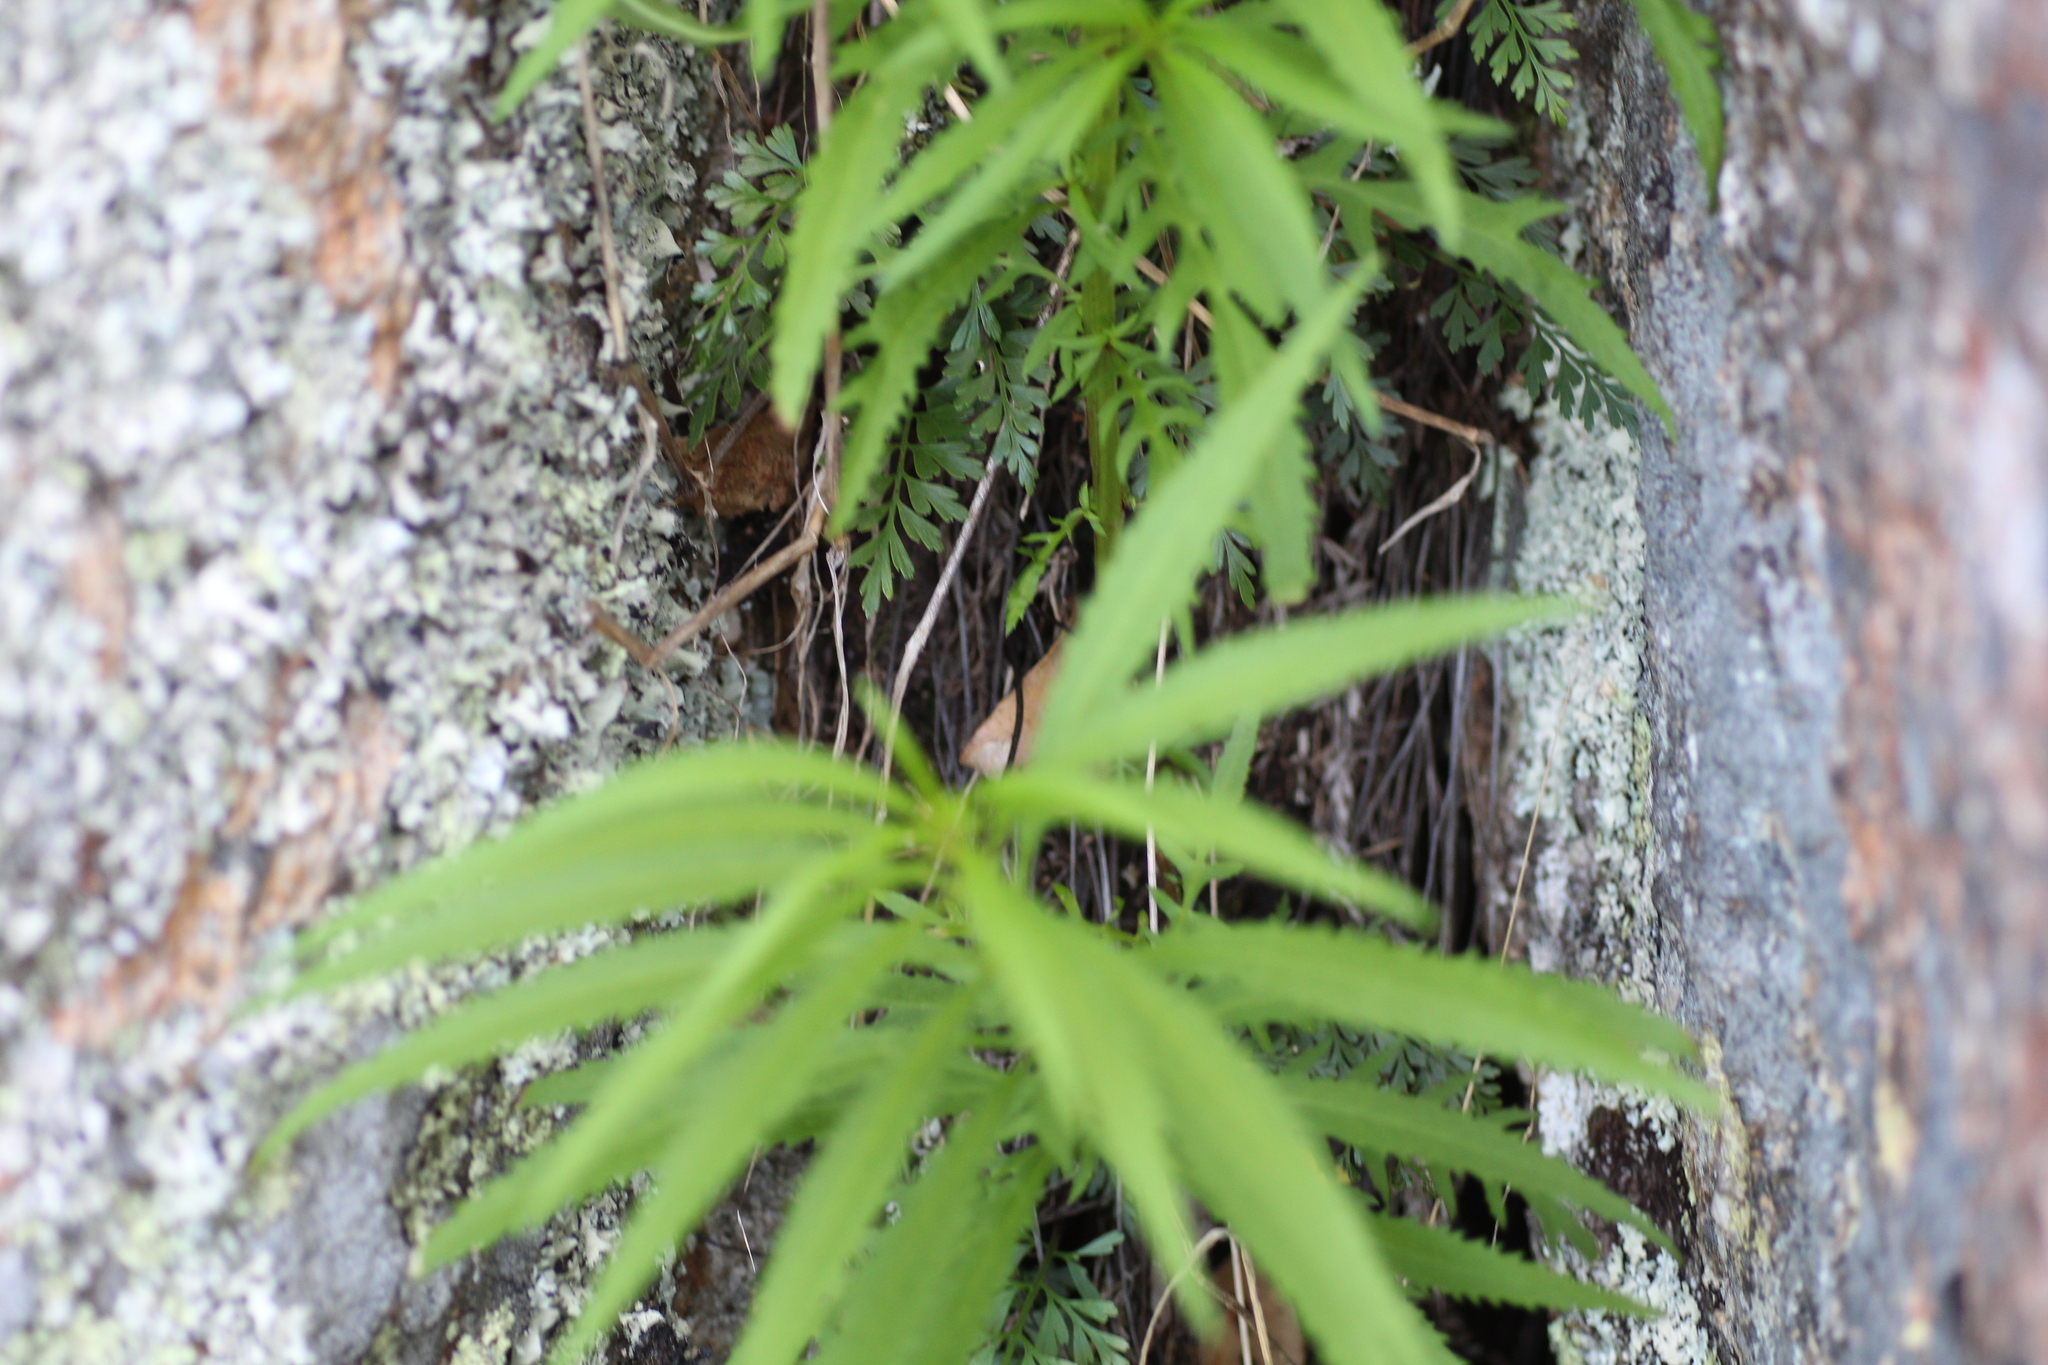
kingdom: Plantae
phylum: Tracheophyta
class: Polypodiopsida
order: Polypodiales
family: Aspleniaceae
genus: Asplenium
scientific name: Asplenium aethiopicum
